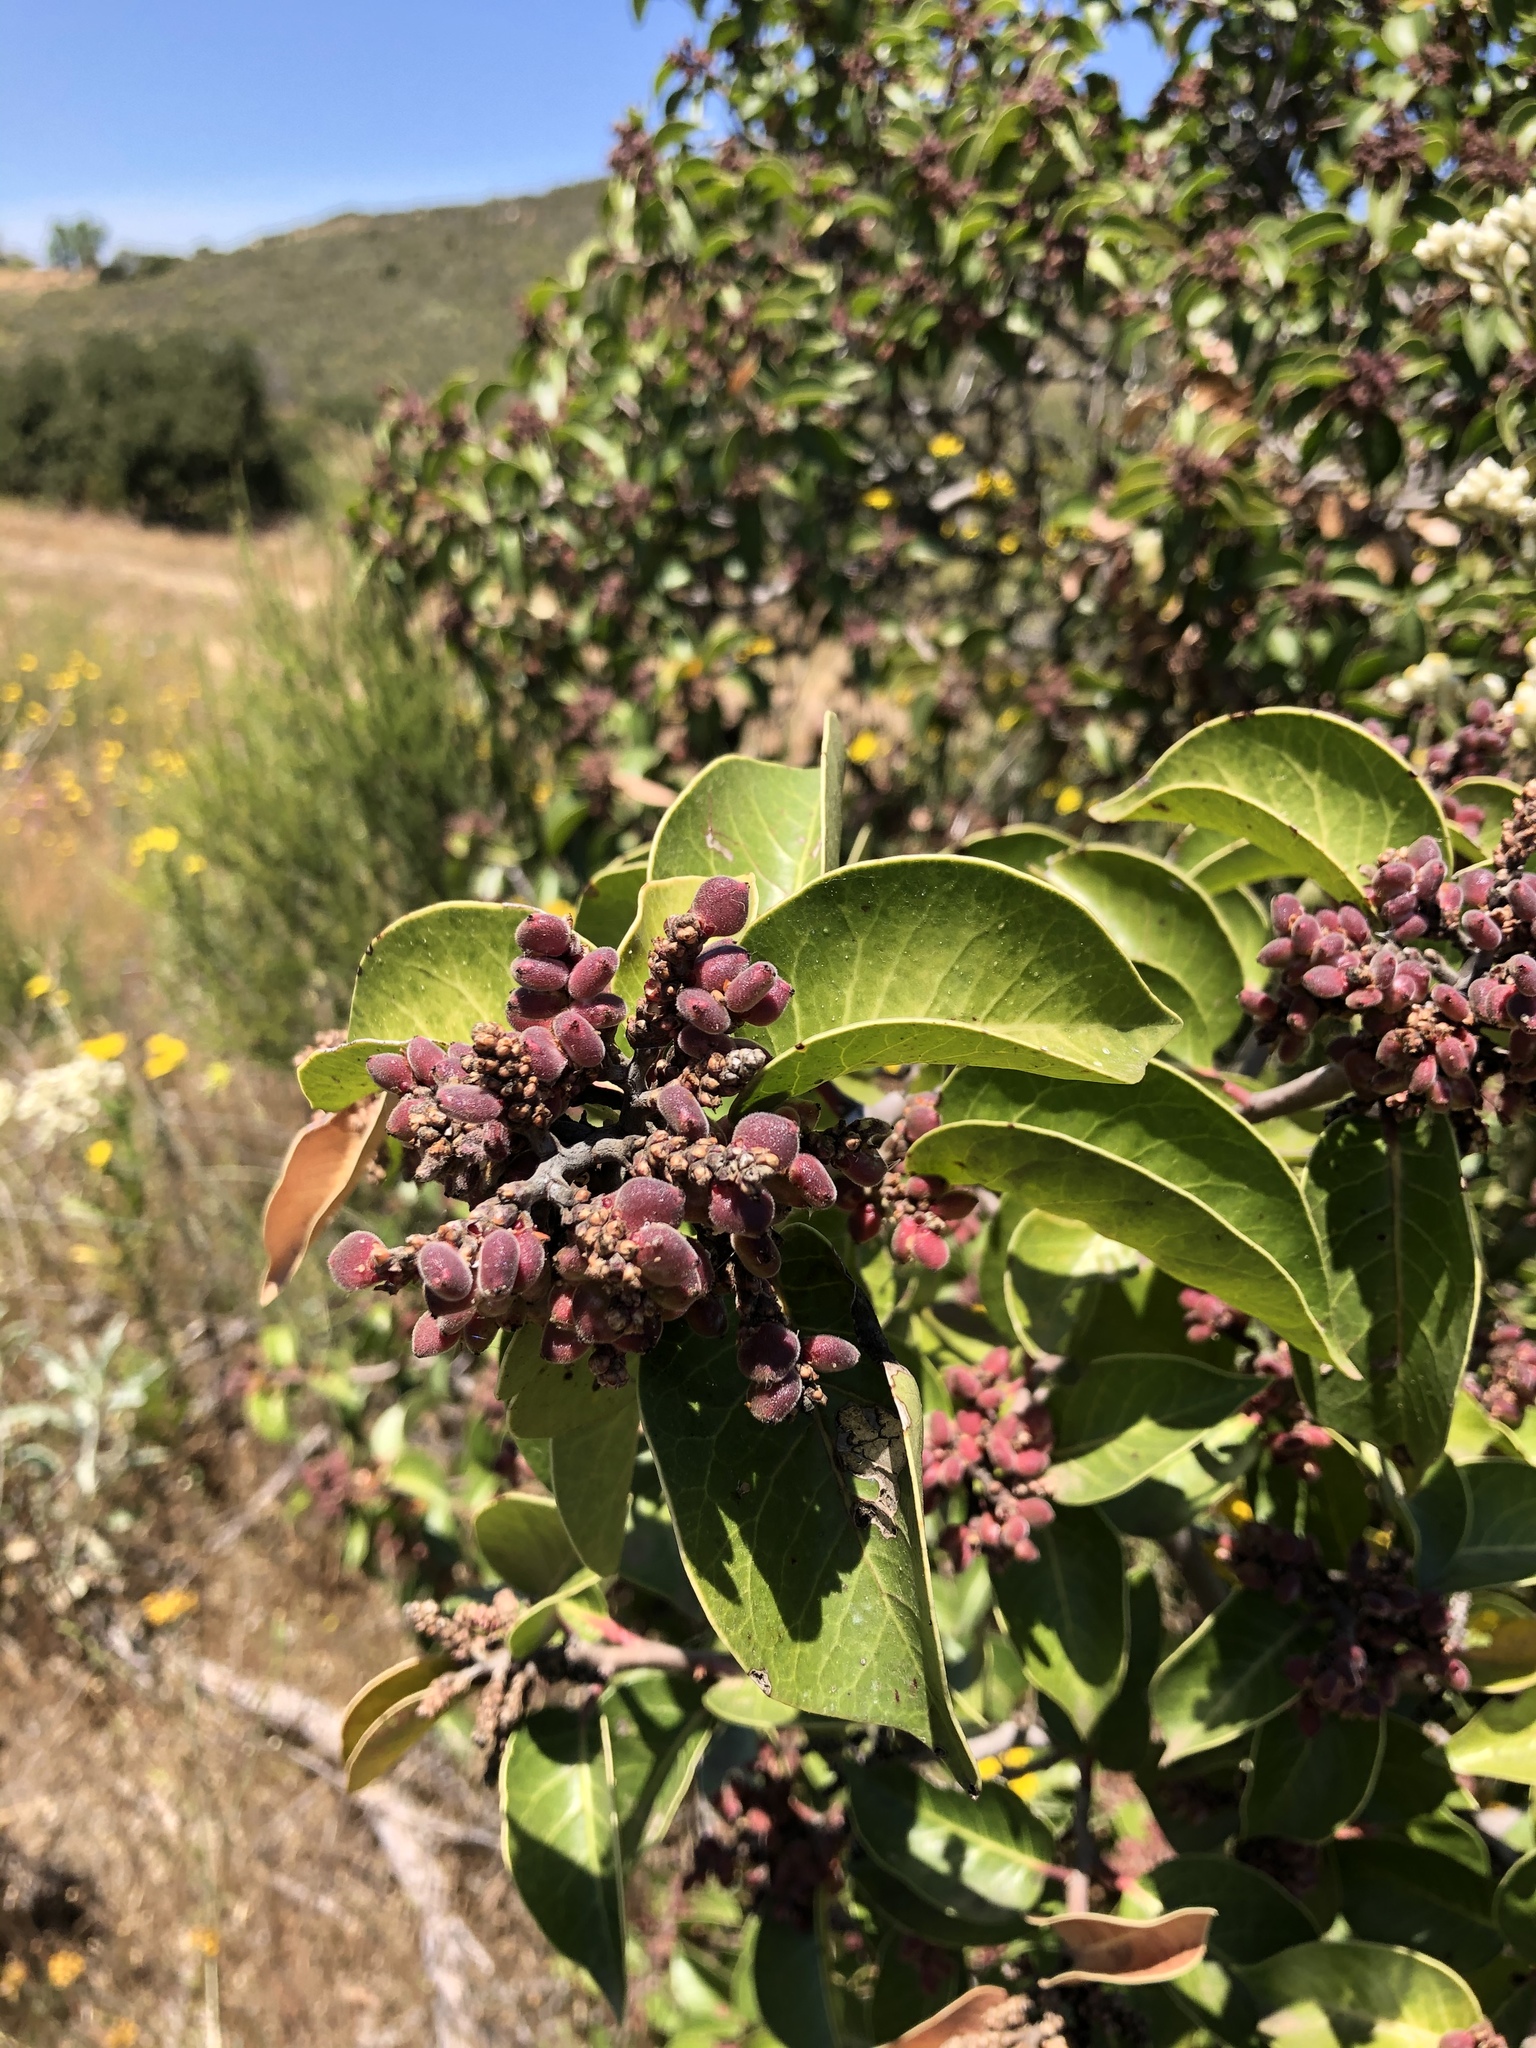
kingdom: Plantae
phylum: Tracheophyta
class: Magnoliopsida
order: Sapindales
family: Anacardiaceae
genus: Rhus
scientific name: Rhus ovata
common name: Sugar sumac
